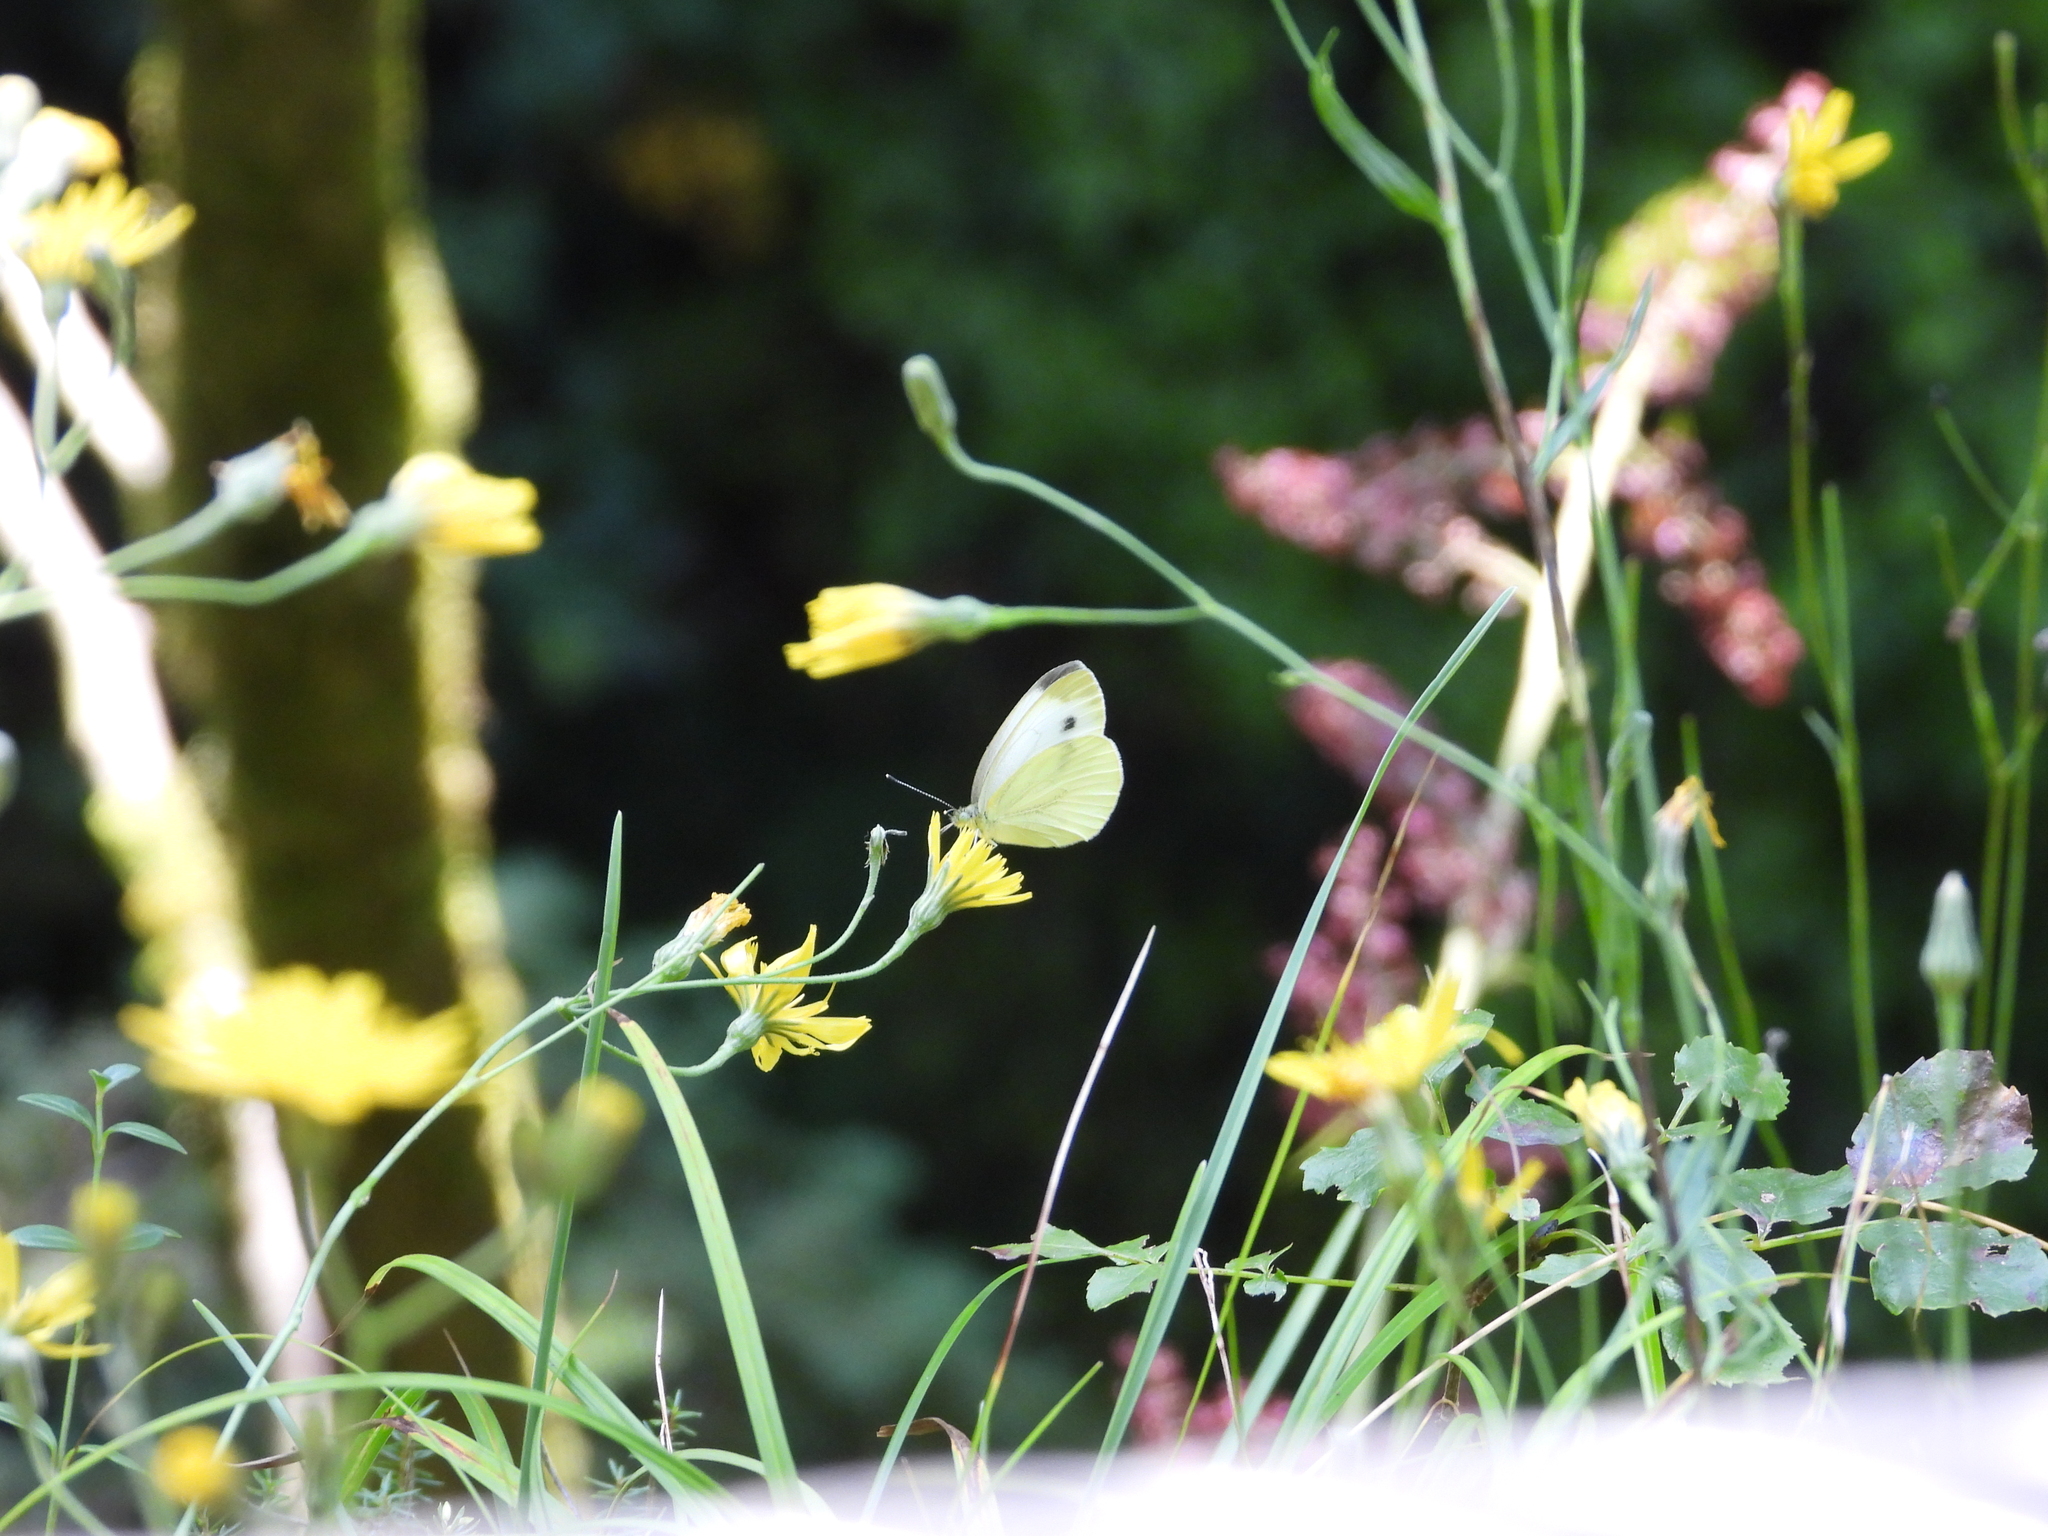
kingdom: Animalia
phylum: Arthropoda
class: Insecta
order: Lepidoptera
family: Pieridae
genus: Pieris
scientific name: Pieris napi
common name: Green-veined white
